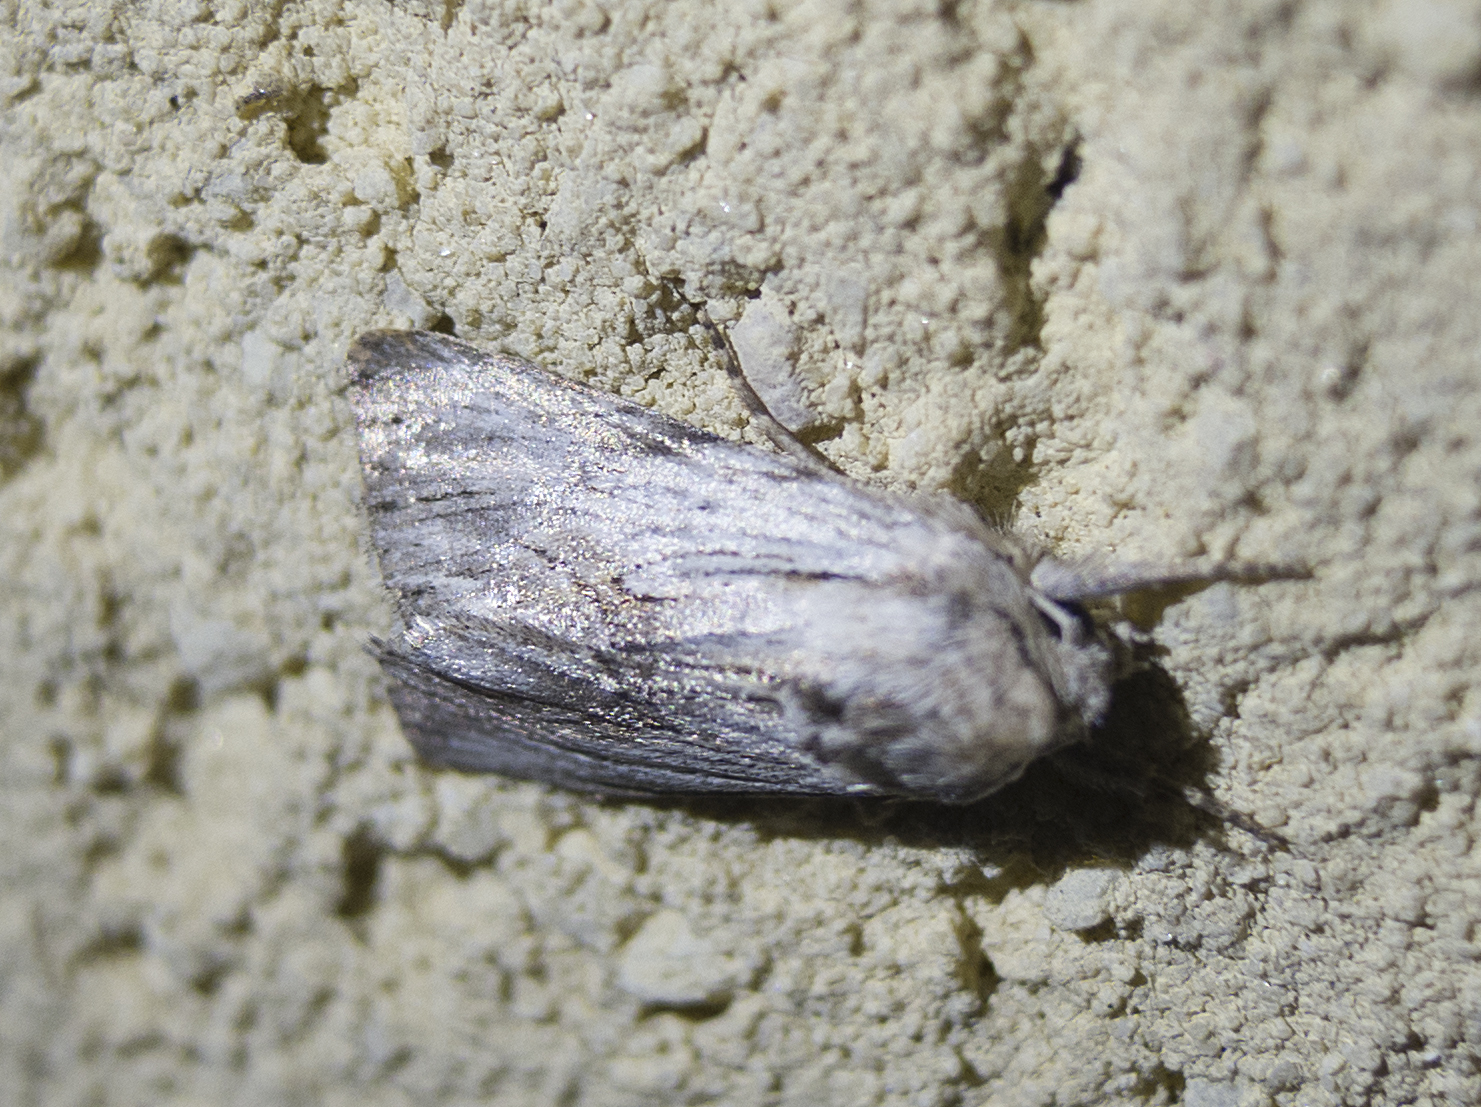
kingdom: Animalia
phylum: Arthropoda
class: Insecta
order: Lepidoptera
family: Noctuidae
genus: Calophasia
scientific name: Calophasia platyptera
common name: Antirrhinum brocade
